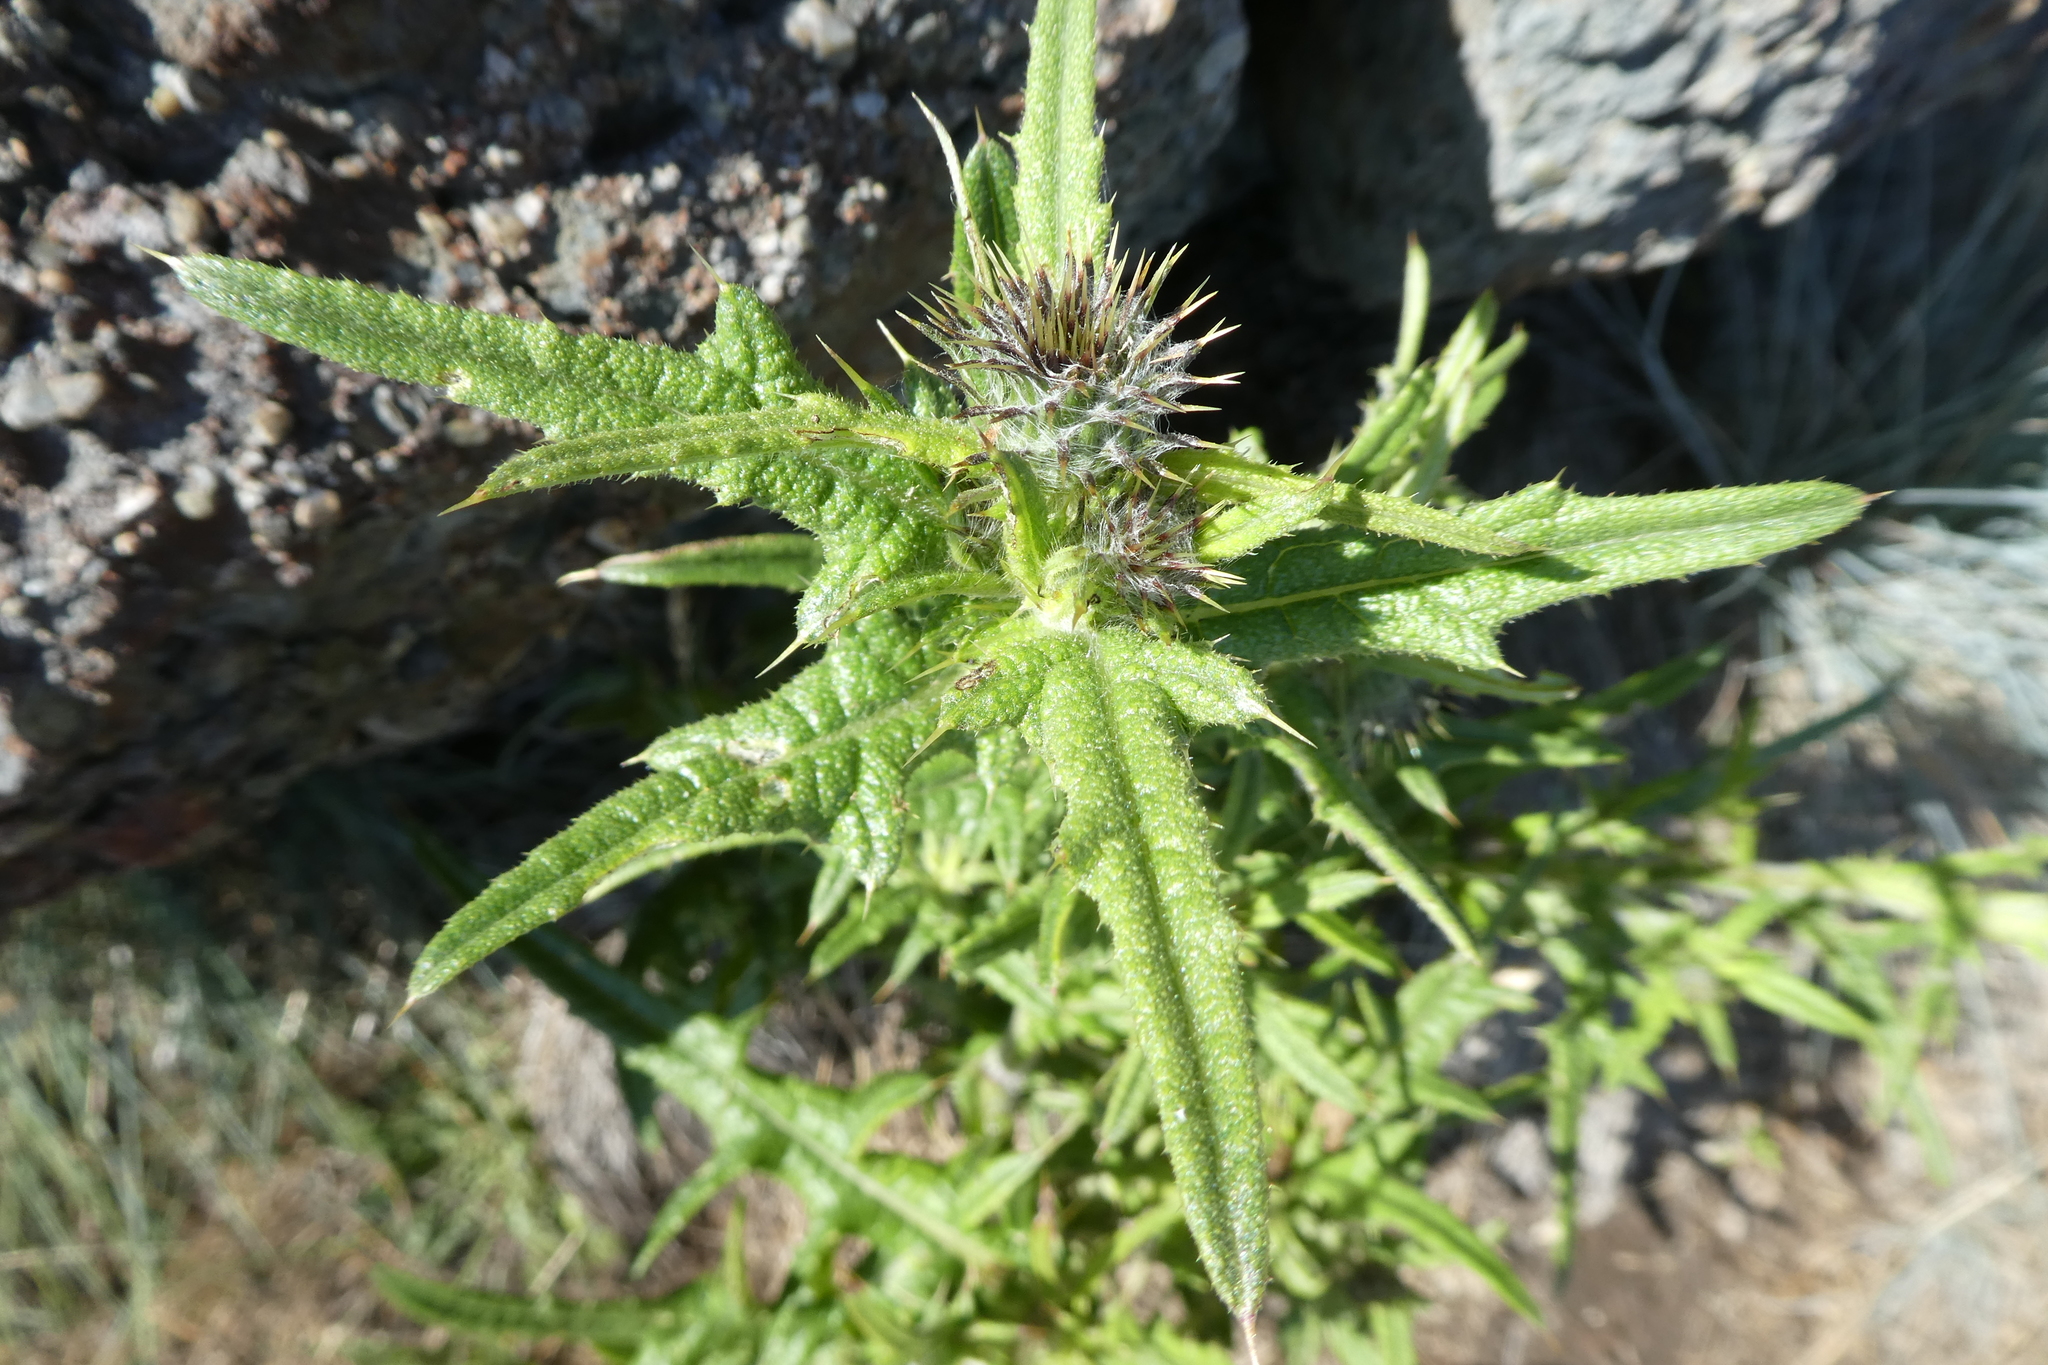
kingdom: Plantae
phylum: Tracheophyta
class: Magnoliopsida
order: Asterales
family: Asteraceae
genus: Cirsium
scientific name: Cirsium vulgare
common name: Bull thistle
